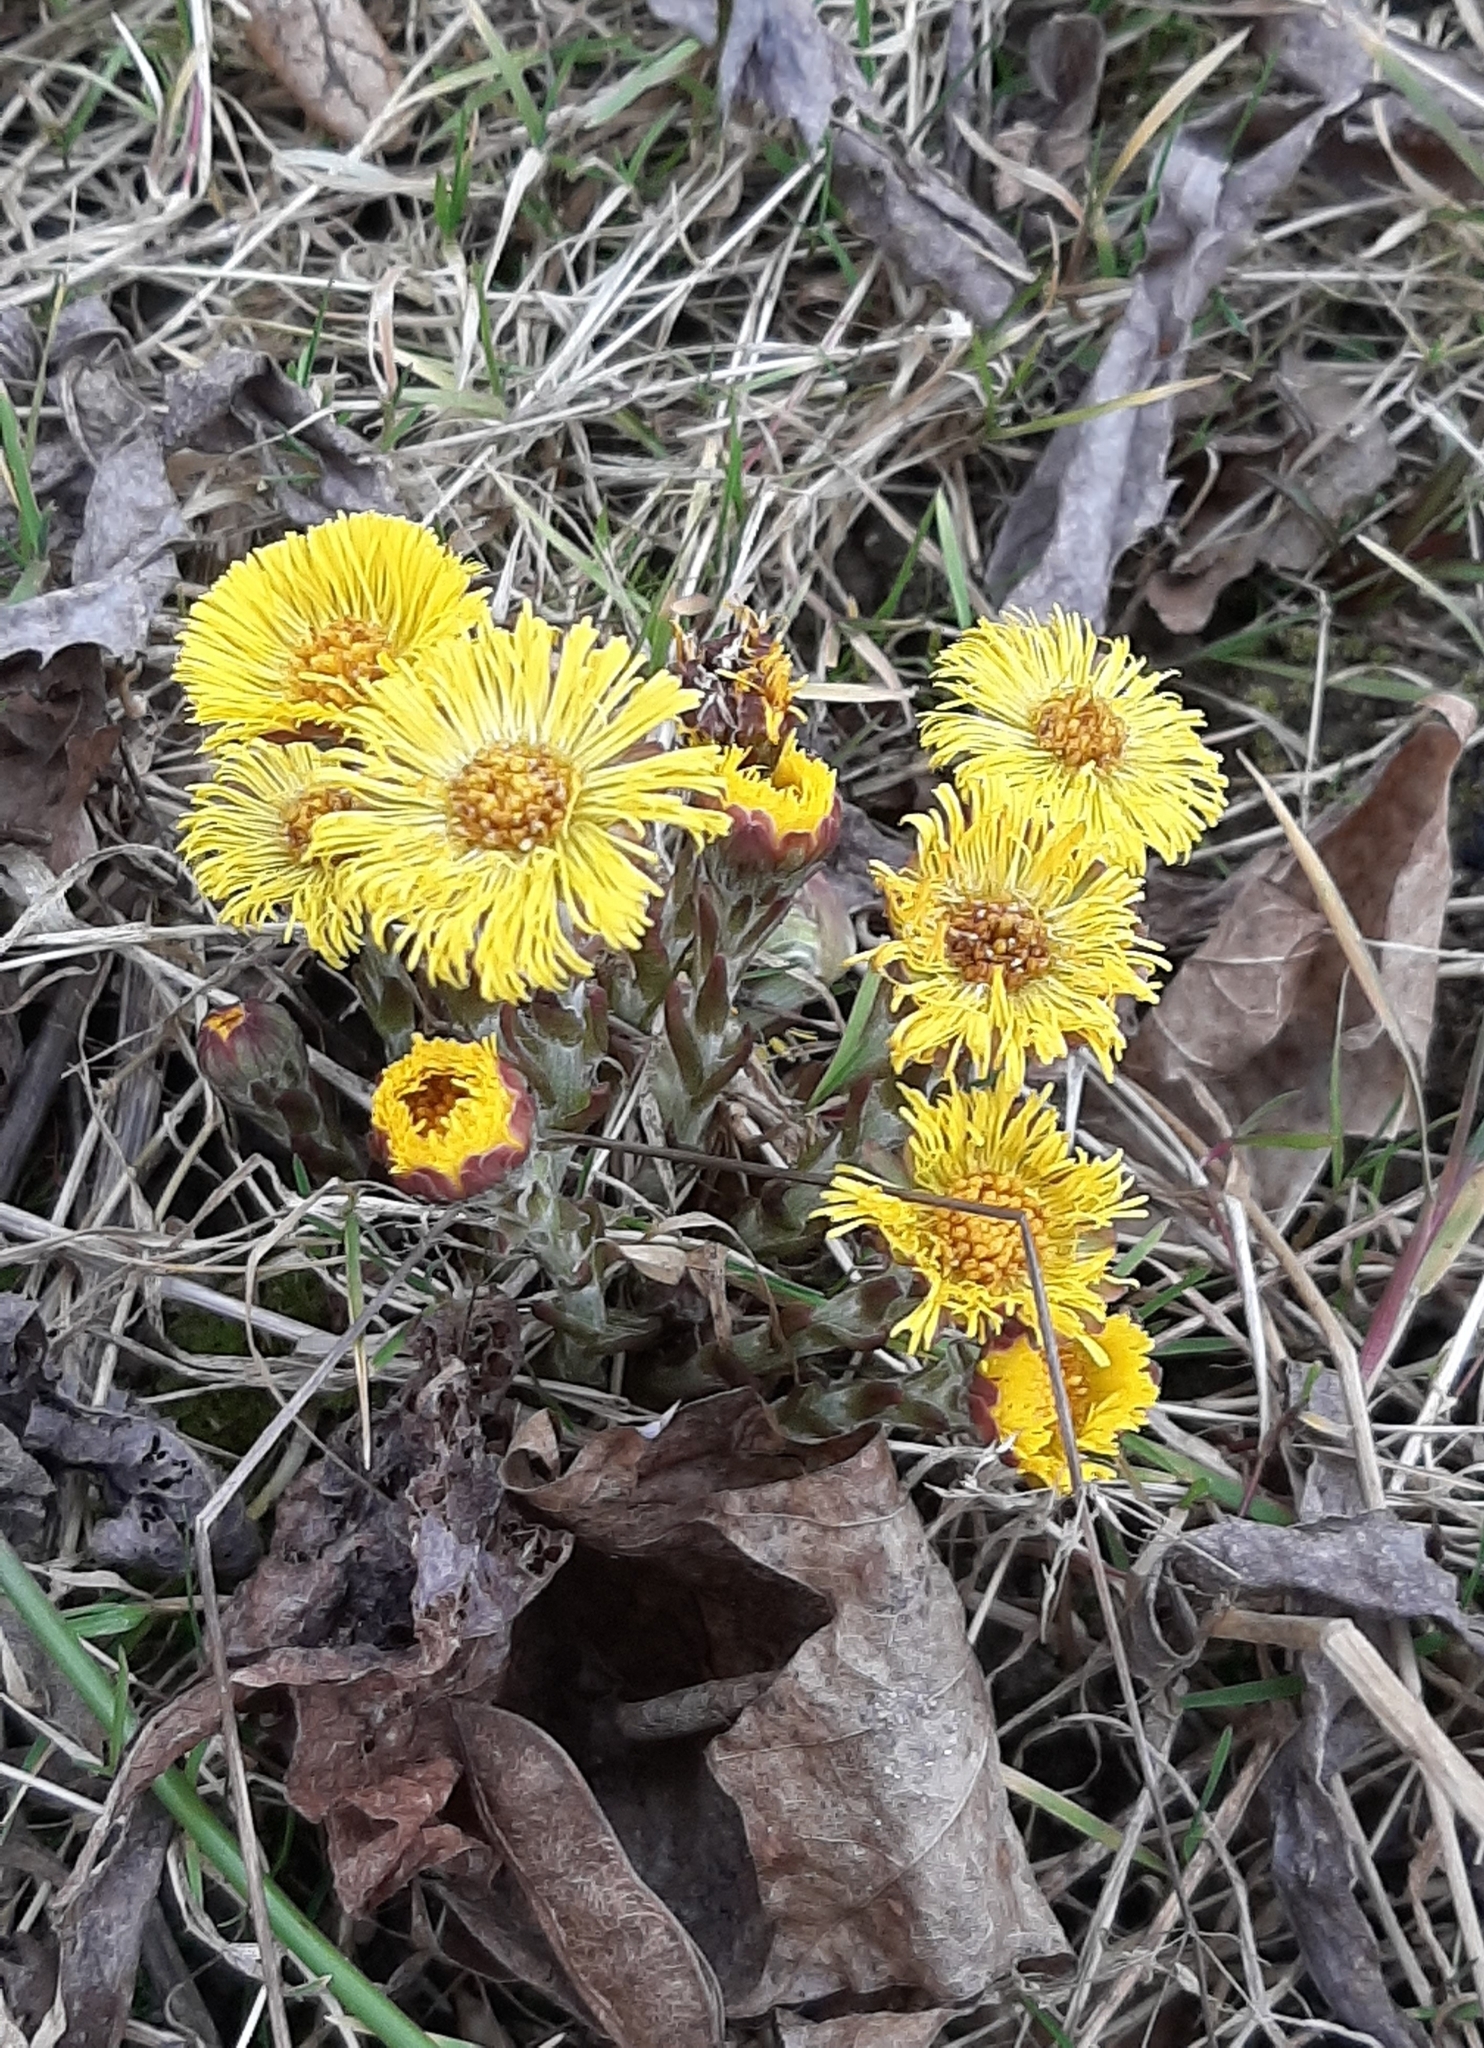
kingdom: Plantae
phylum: Tracheophyta
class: Magnoliopsida
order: Asterales
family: Asteraceae
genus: Tussilago
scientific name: Tussilago farfara
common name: Coltsfoot
